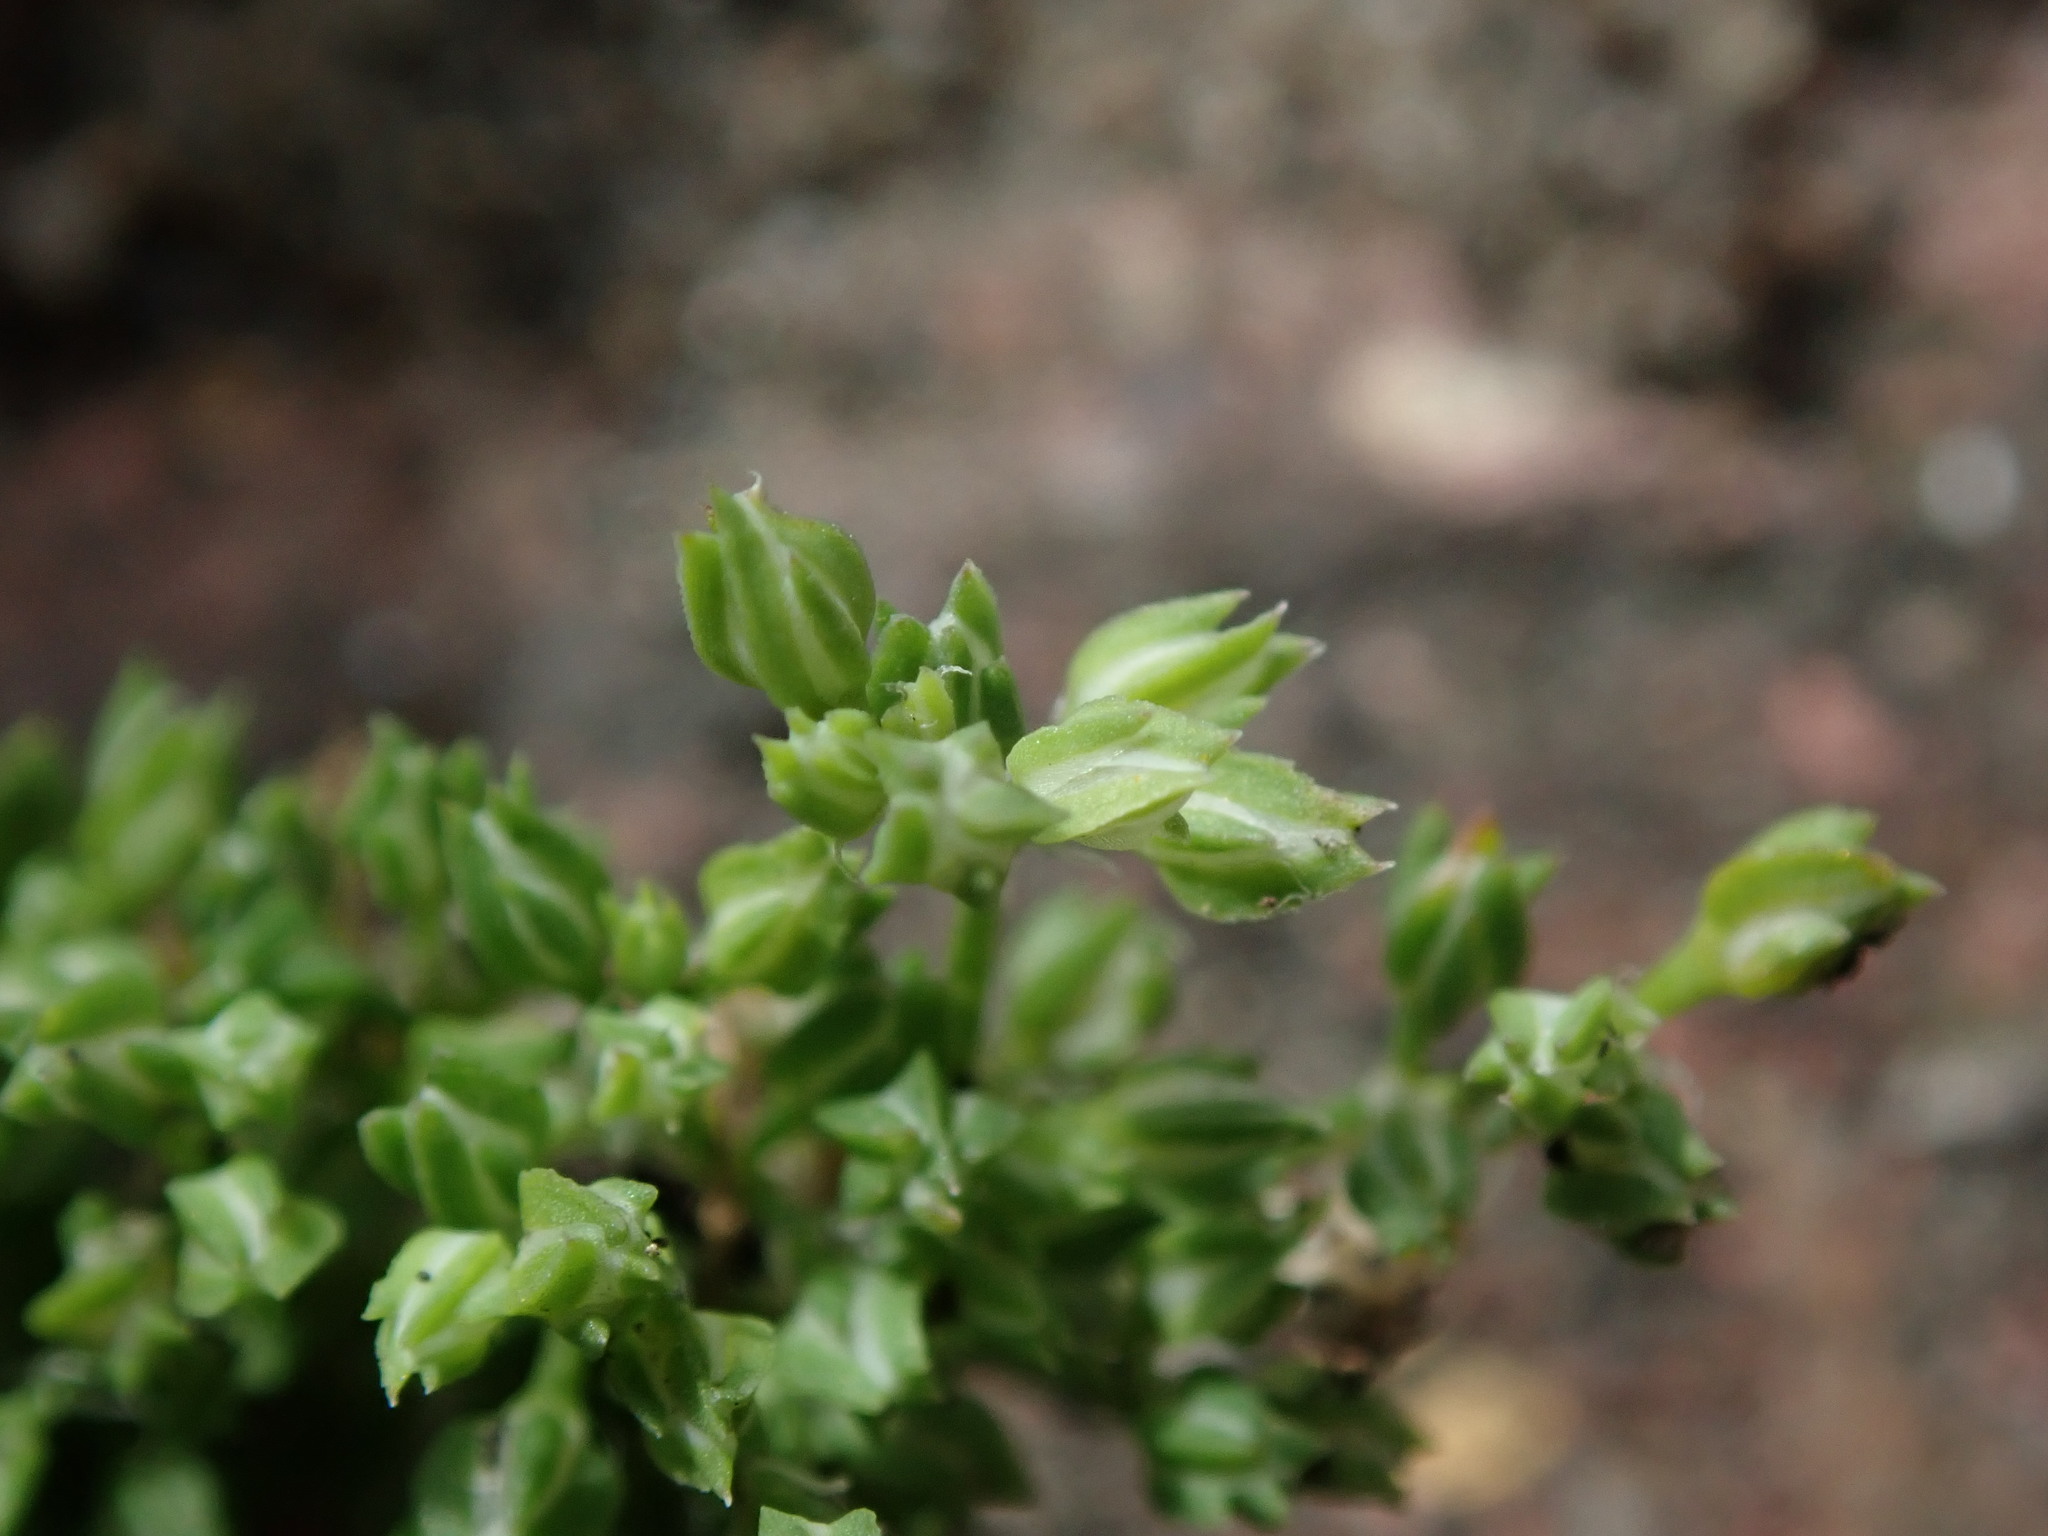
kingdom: Plantae
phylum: Tracheophyta
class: Magnoliopsida
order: Caryophyllales
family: Caryophyllaceae
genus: Polycarpon
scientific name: Polycarpon tetraphyllum
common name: Four-leaved all-seed
